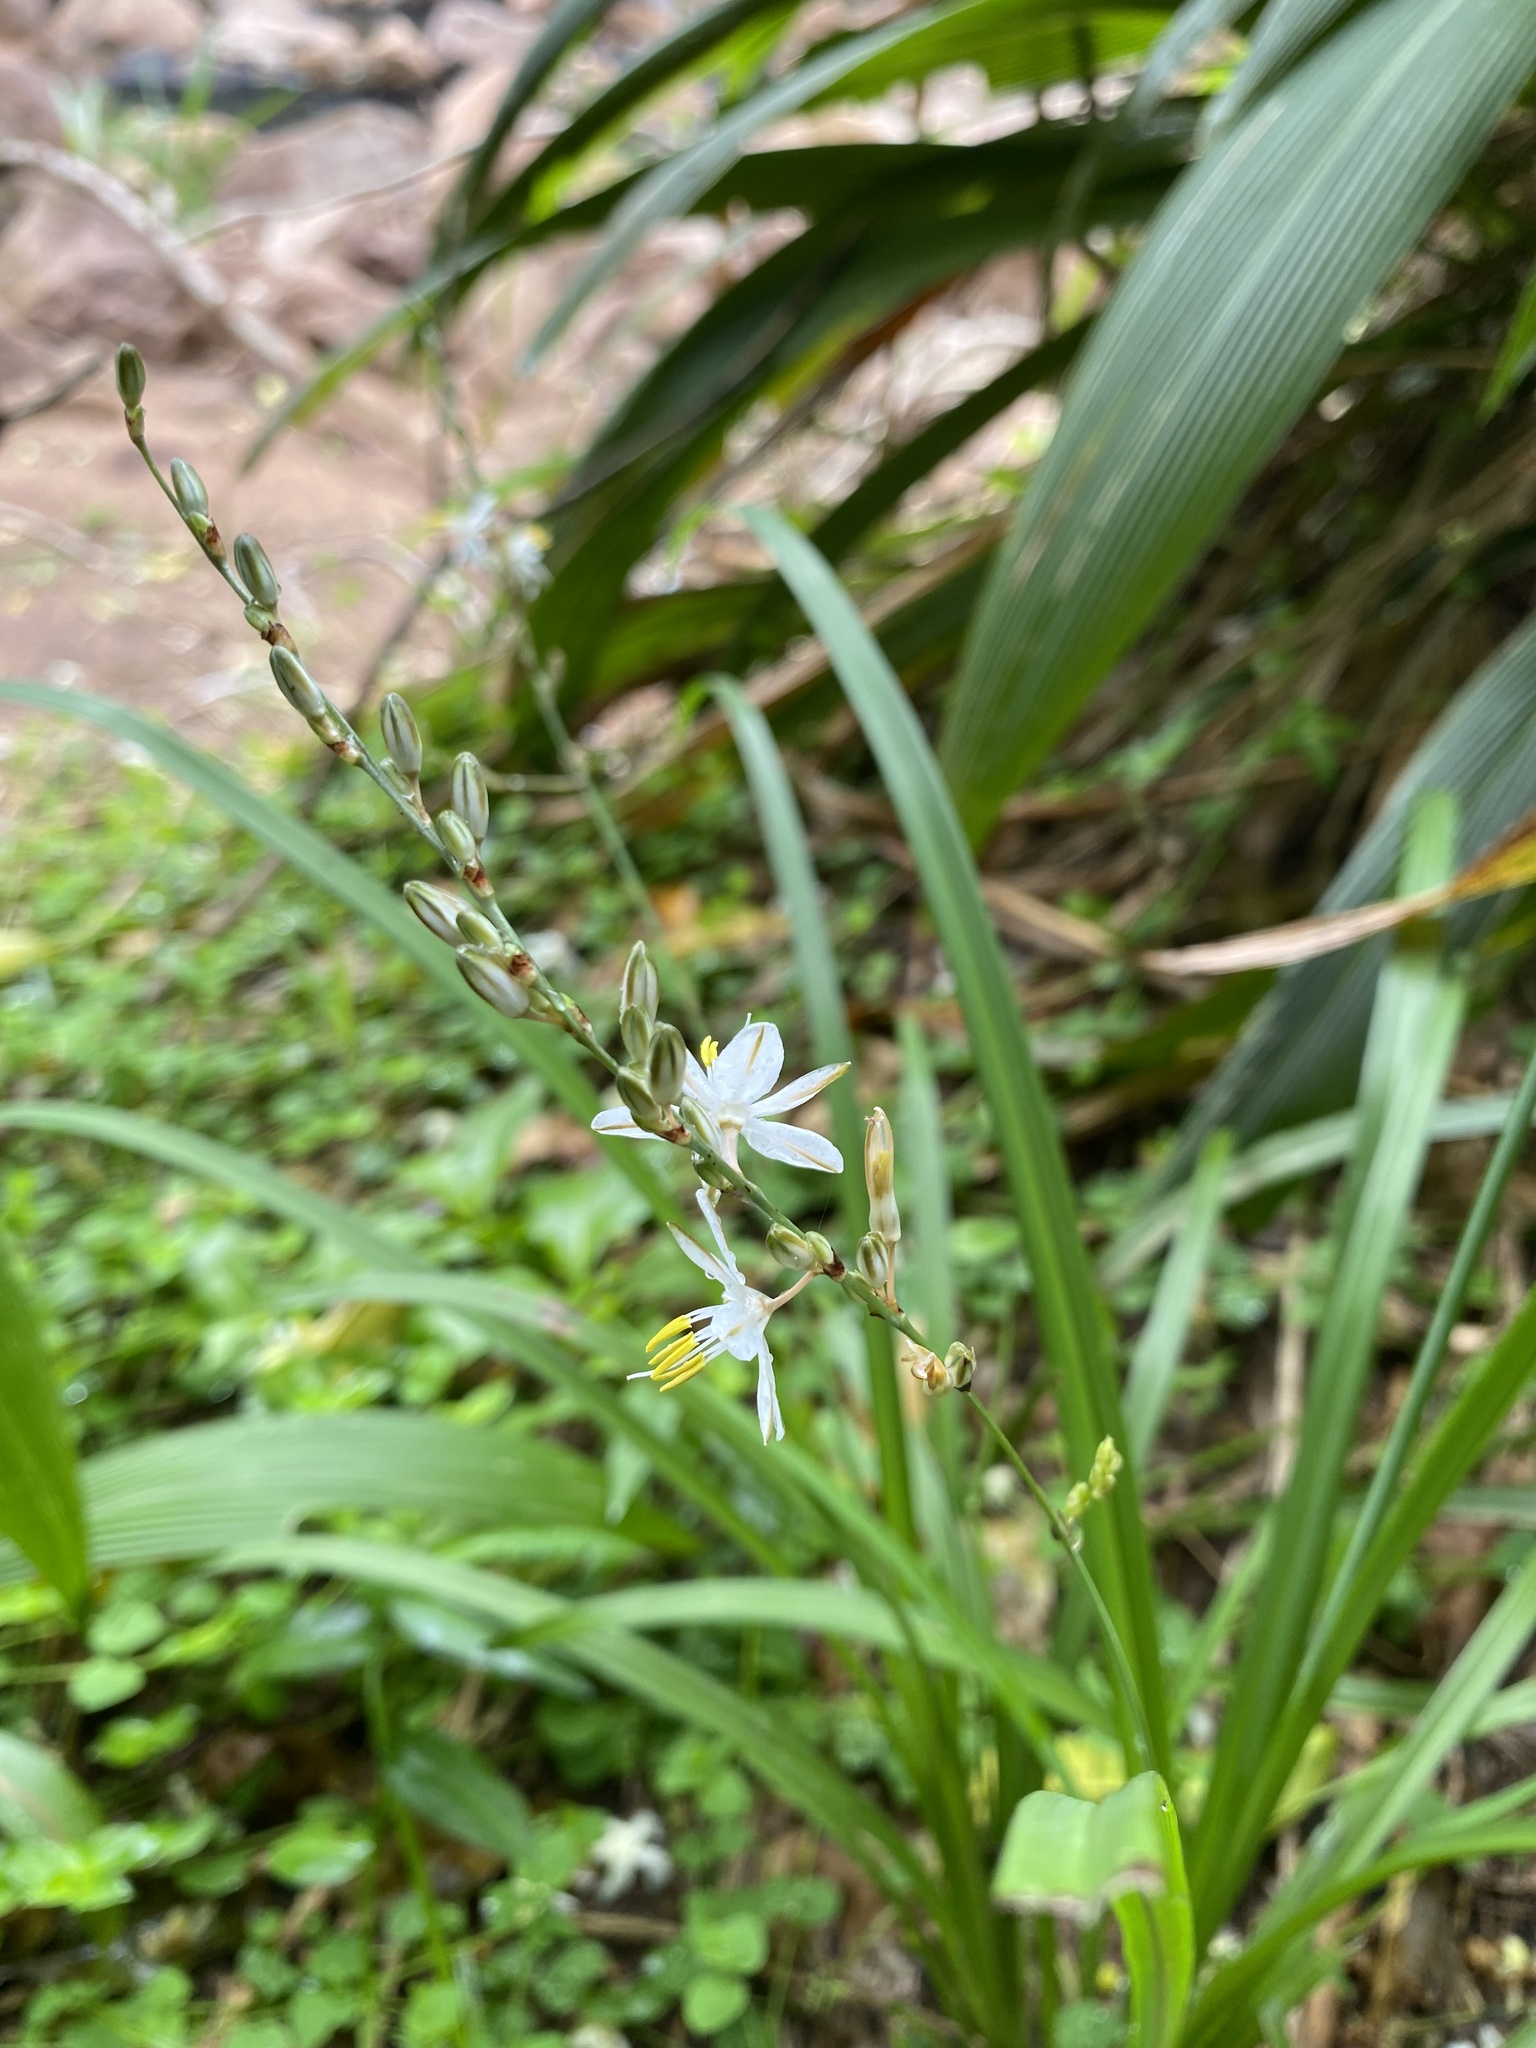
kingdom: Plantae
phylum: Tracheophyta
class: Liliopsida
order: Asparagales
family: Asparagaceae
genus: Chlorophytum
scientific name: Chlorophytum saundersiae
